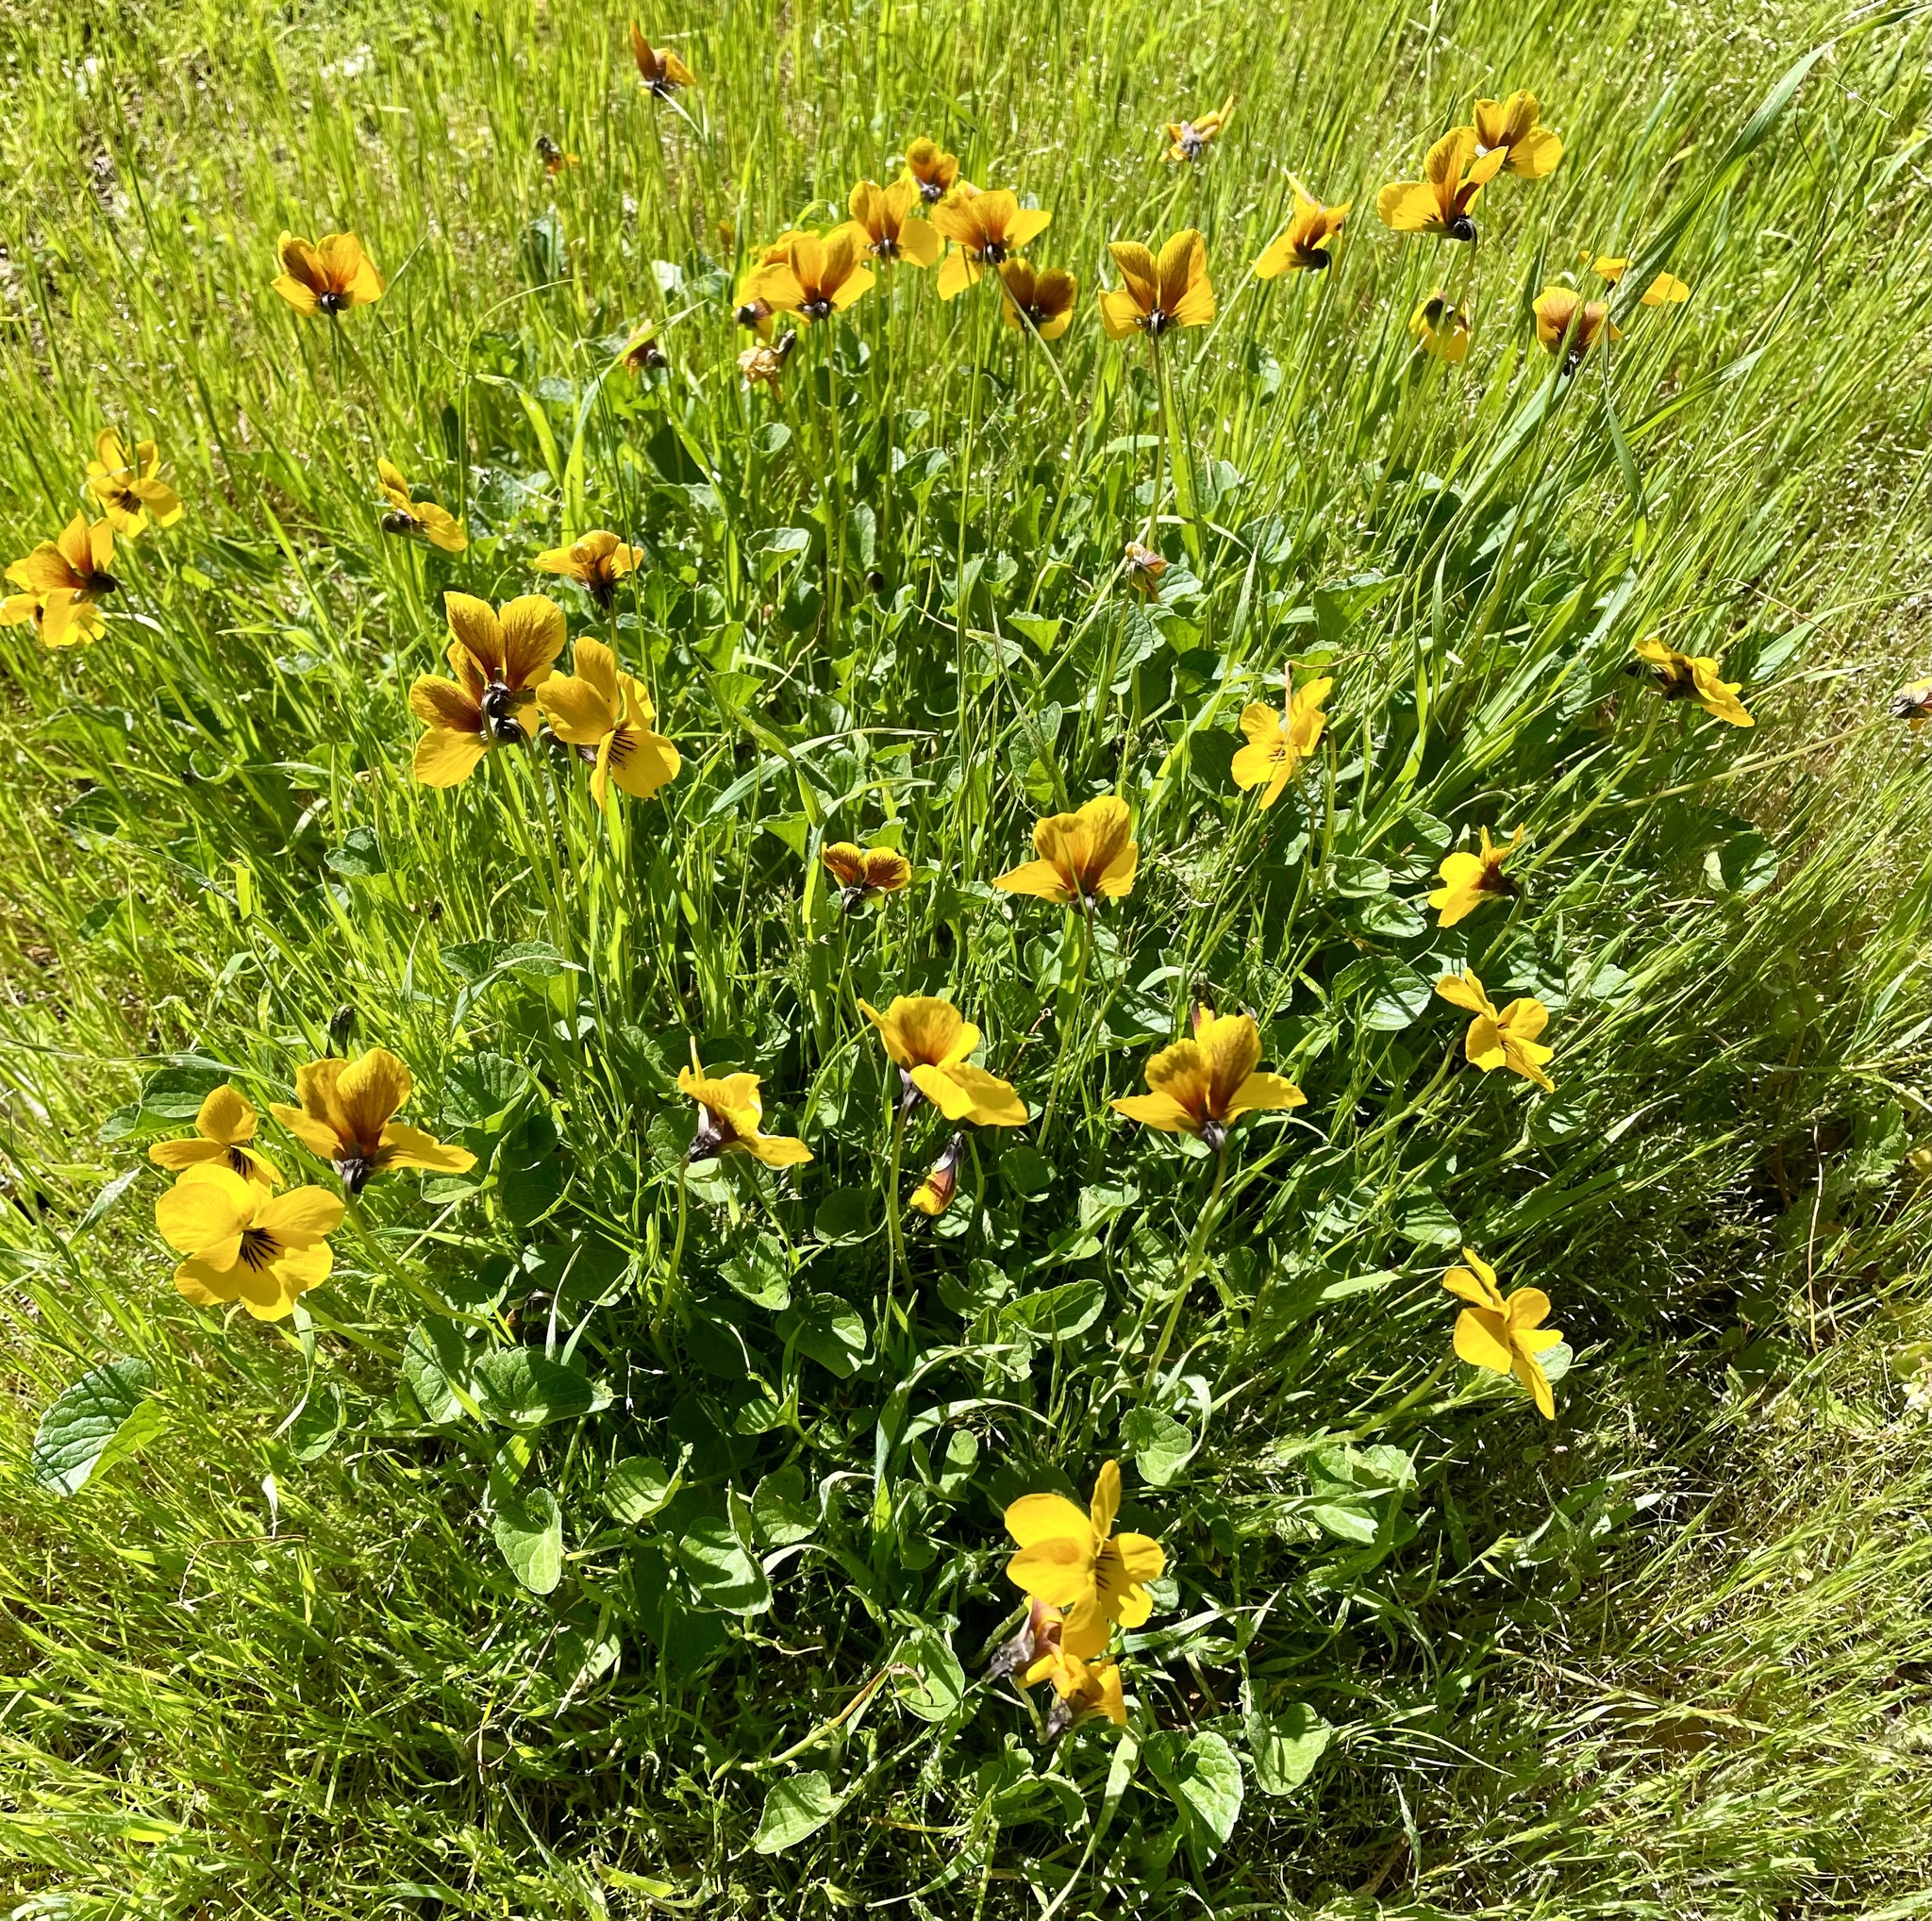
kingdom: Plantae
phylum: Tracheophyta
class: Magnoliopsida
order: Malpighiales
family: Violaceae
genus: Viola
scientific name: Viola pedunculata
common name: California golden violet
